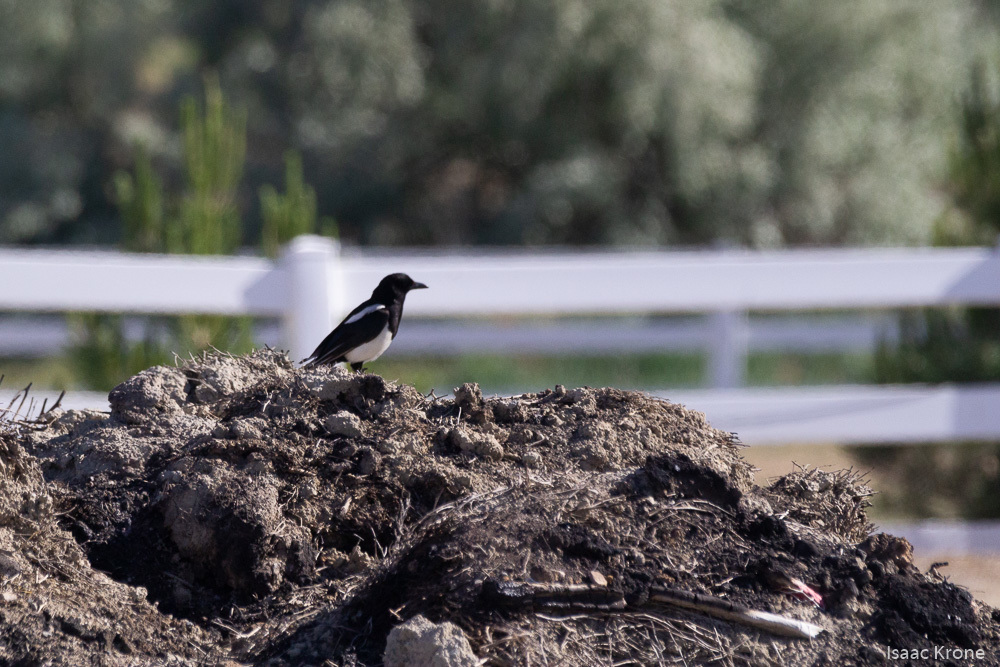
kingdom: Animalia
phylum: Chordata
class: Aves
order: Passeriformes
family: Corvidae
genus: Pica
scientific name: Pica hudsonia
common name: Black-billed magpie
